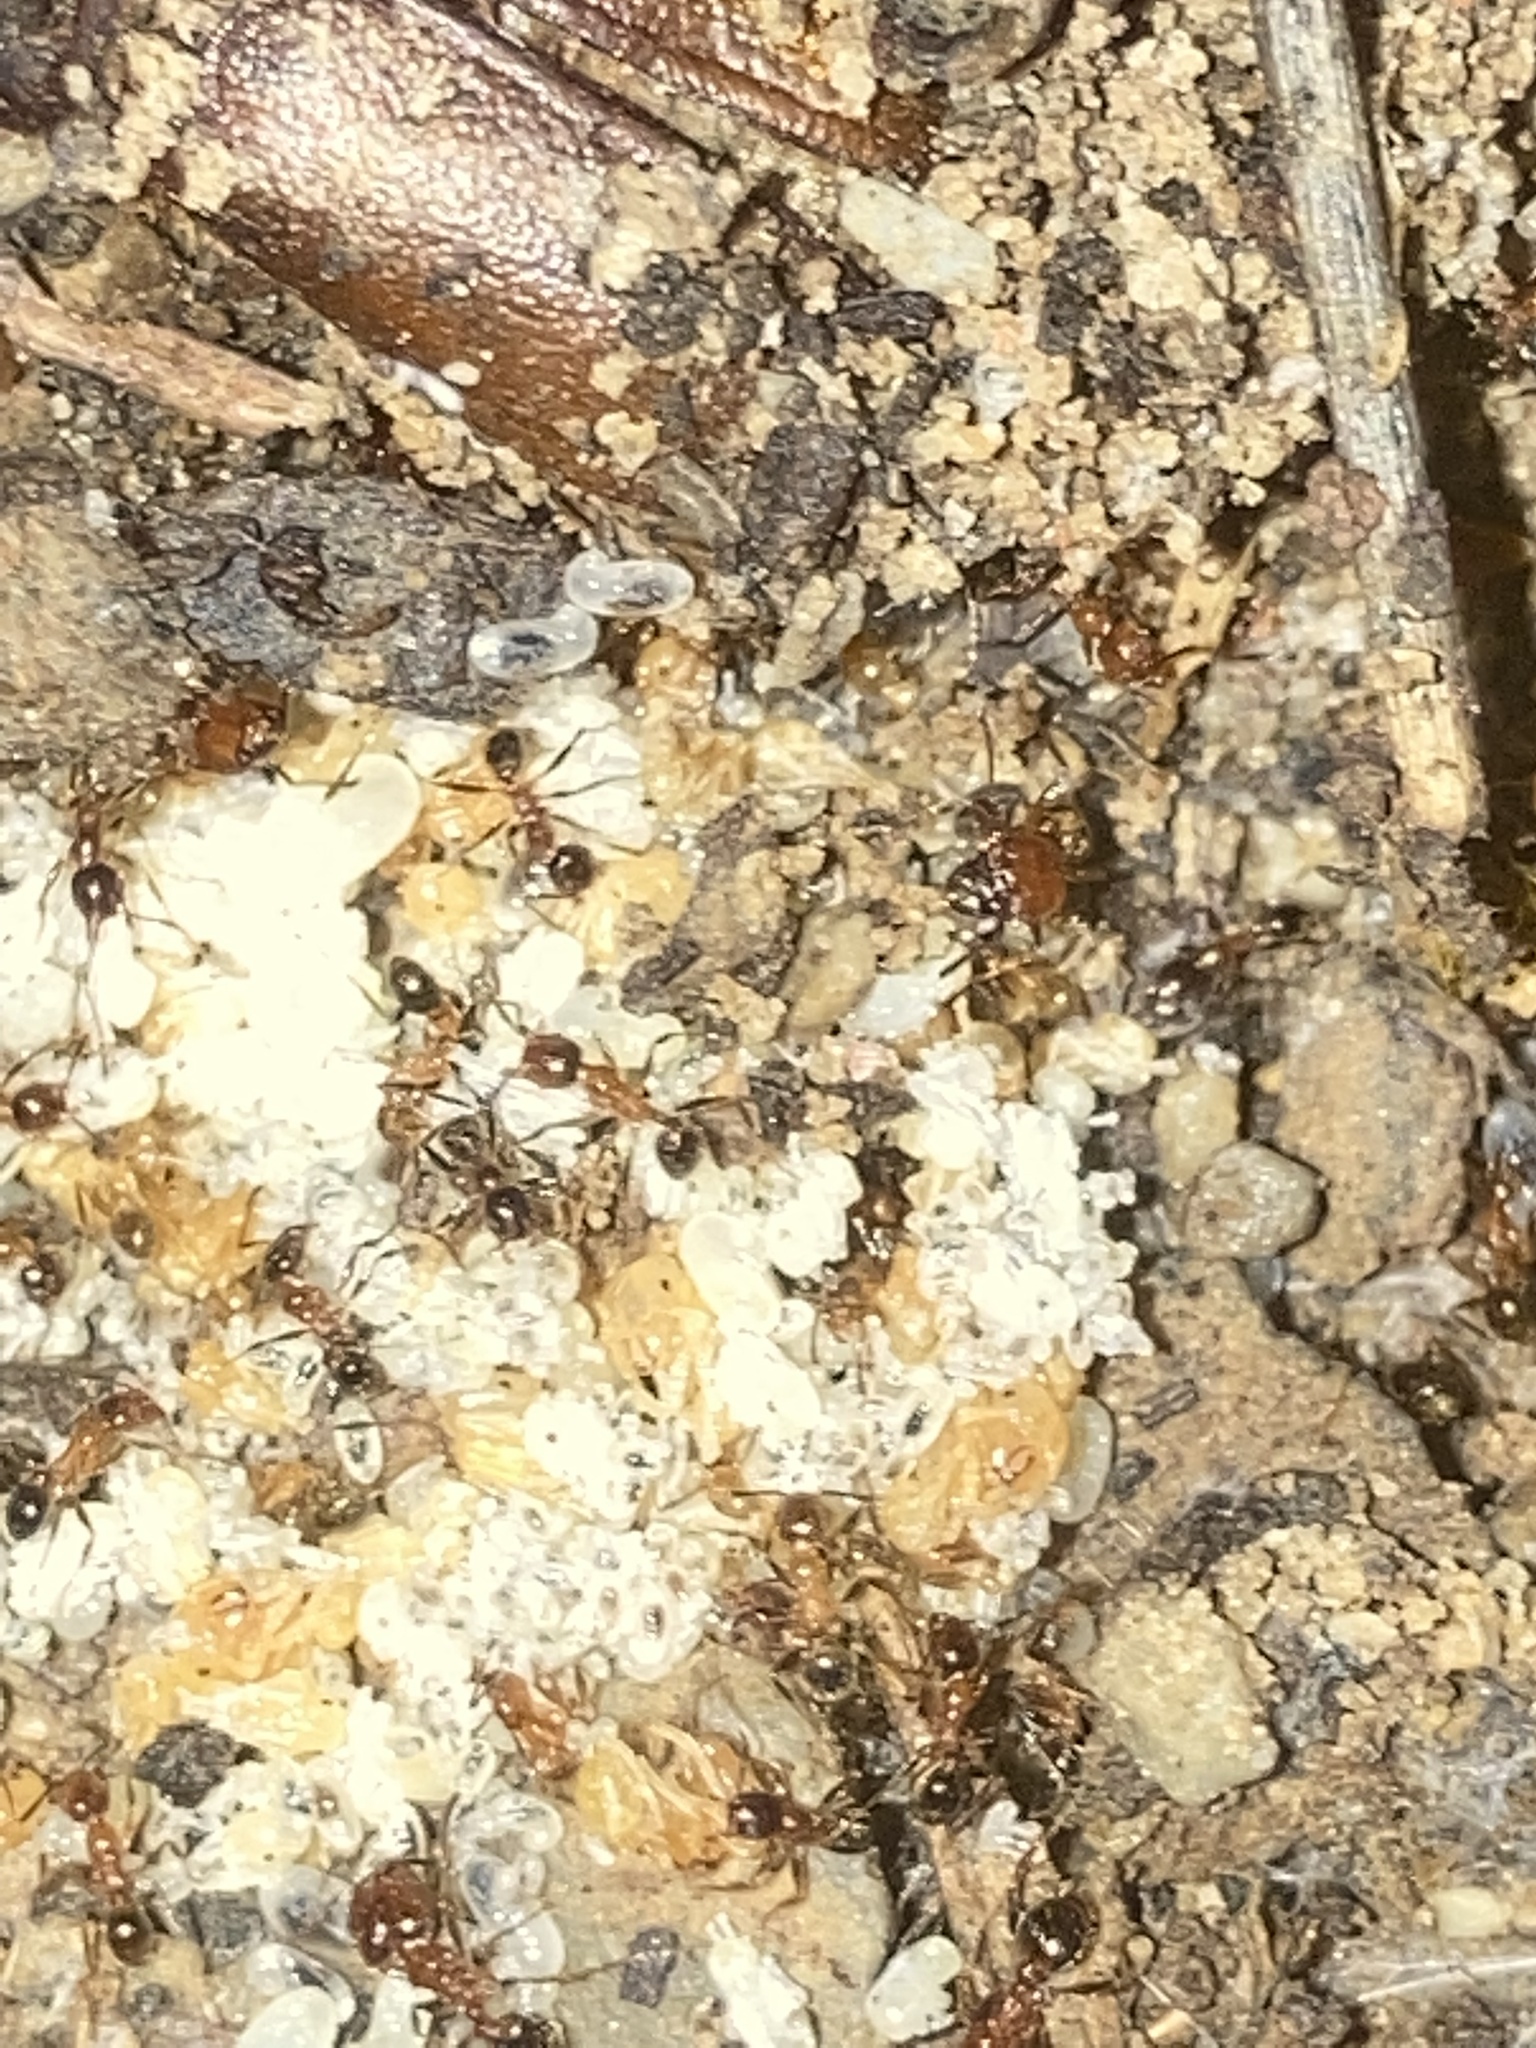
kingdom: Animalia
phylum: Arthropoda
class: Insecta
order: Hymenoptera
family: Formicidae
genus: Pheidole
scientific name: Pheidole dentata
